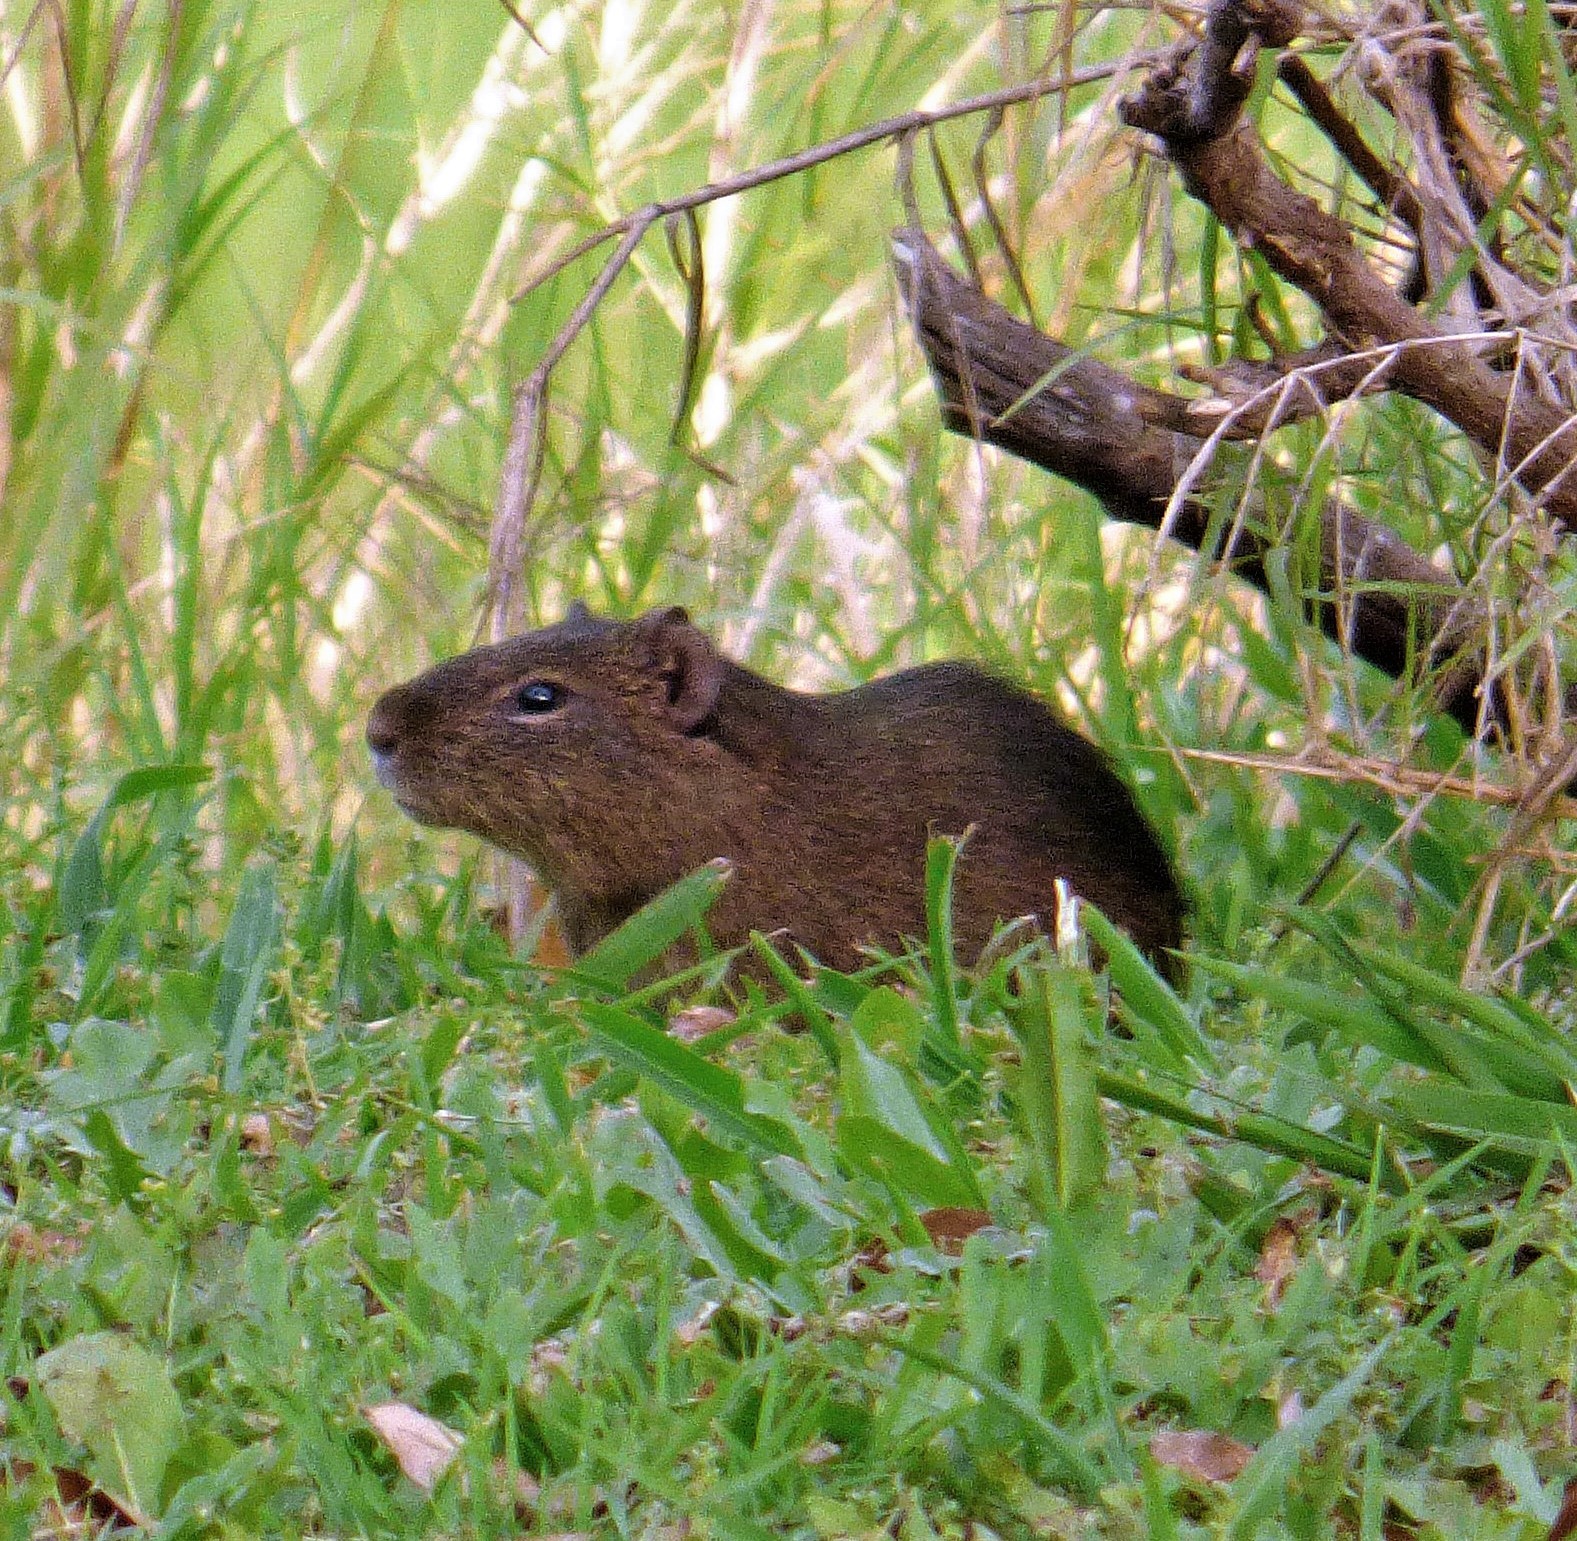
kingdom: Animalia
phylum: Chordata
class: Mammalia
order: Rodentia
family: Caviidae
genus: Cavia
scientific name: Cavia aperea
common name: Brazilian guinea pig
